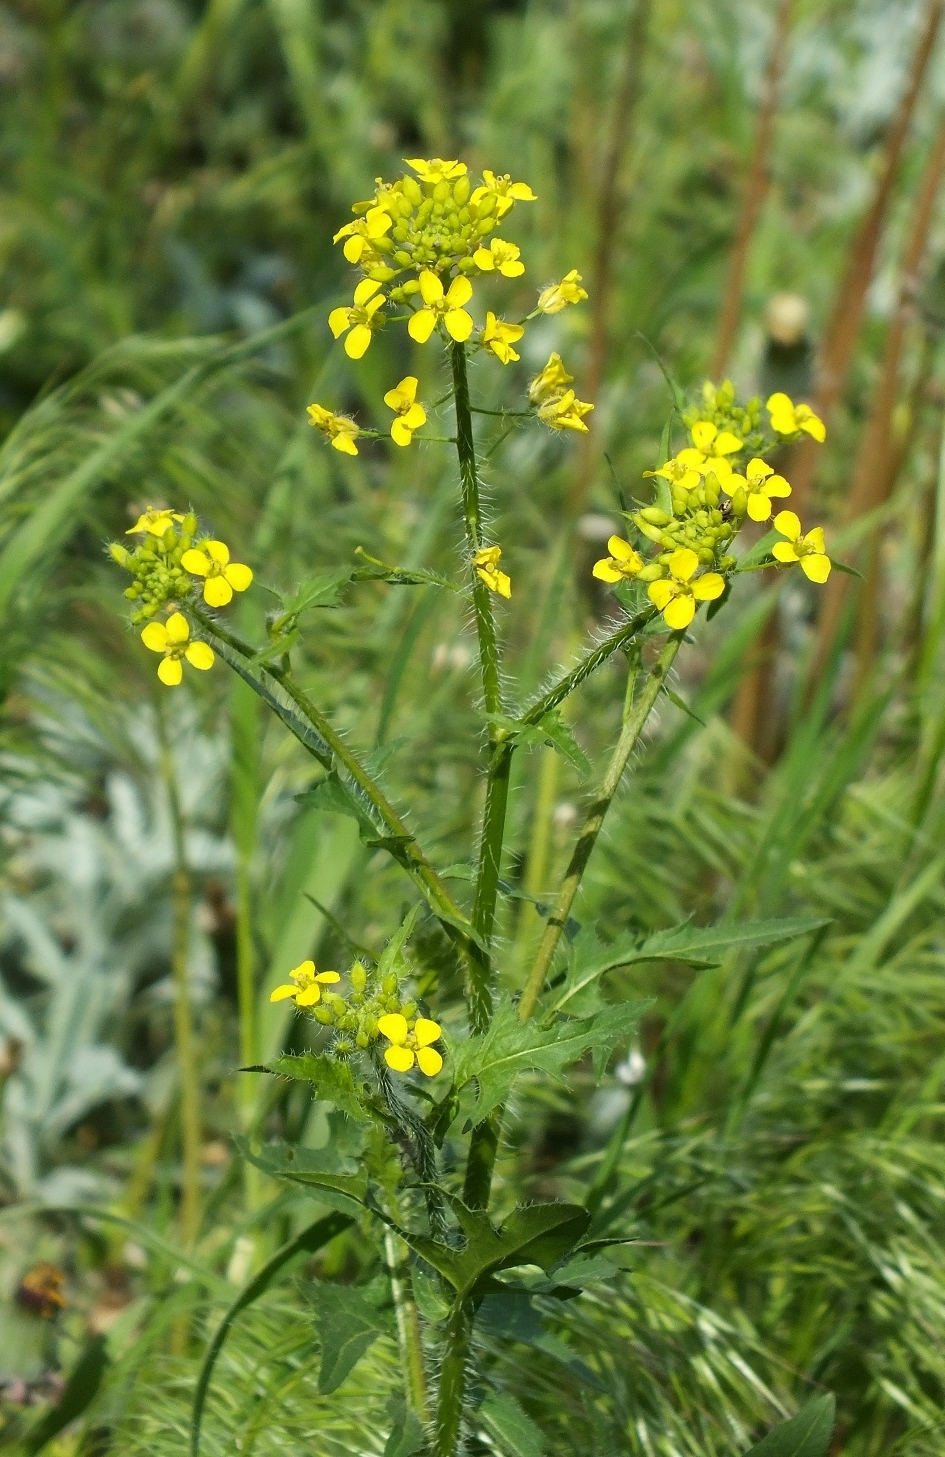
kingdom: Plantae
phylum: Tracheophyta
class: Magnoliopsida
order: Brassicales
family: Brassicaceae
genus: Sisymbrium
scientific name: Sisymbrium loeselii
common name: False london-rocket
